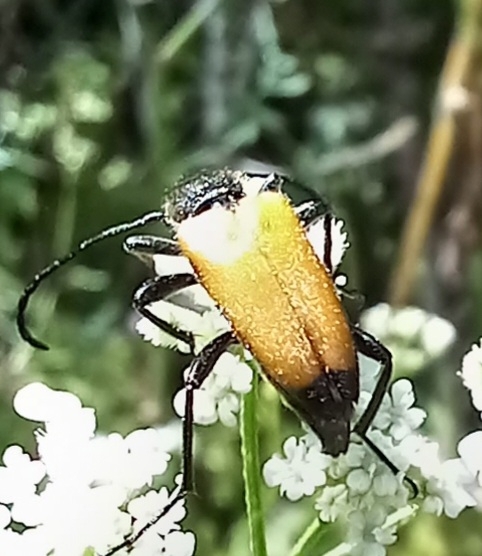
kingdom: Animalia
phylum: Arthropoda
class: Insecta
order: Coleoptera
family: Cerambycidae
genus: Paracorymbia
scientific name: Paracorymbia fulva
